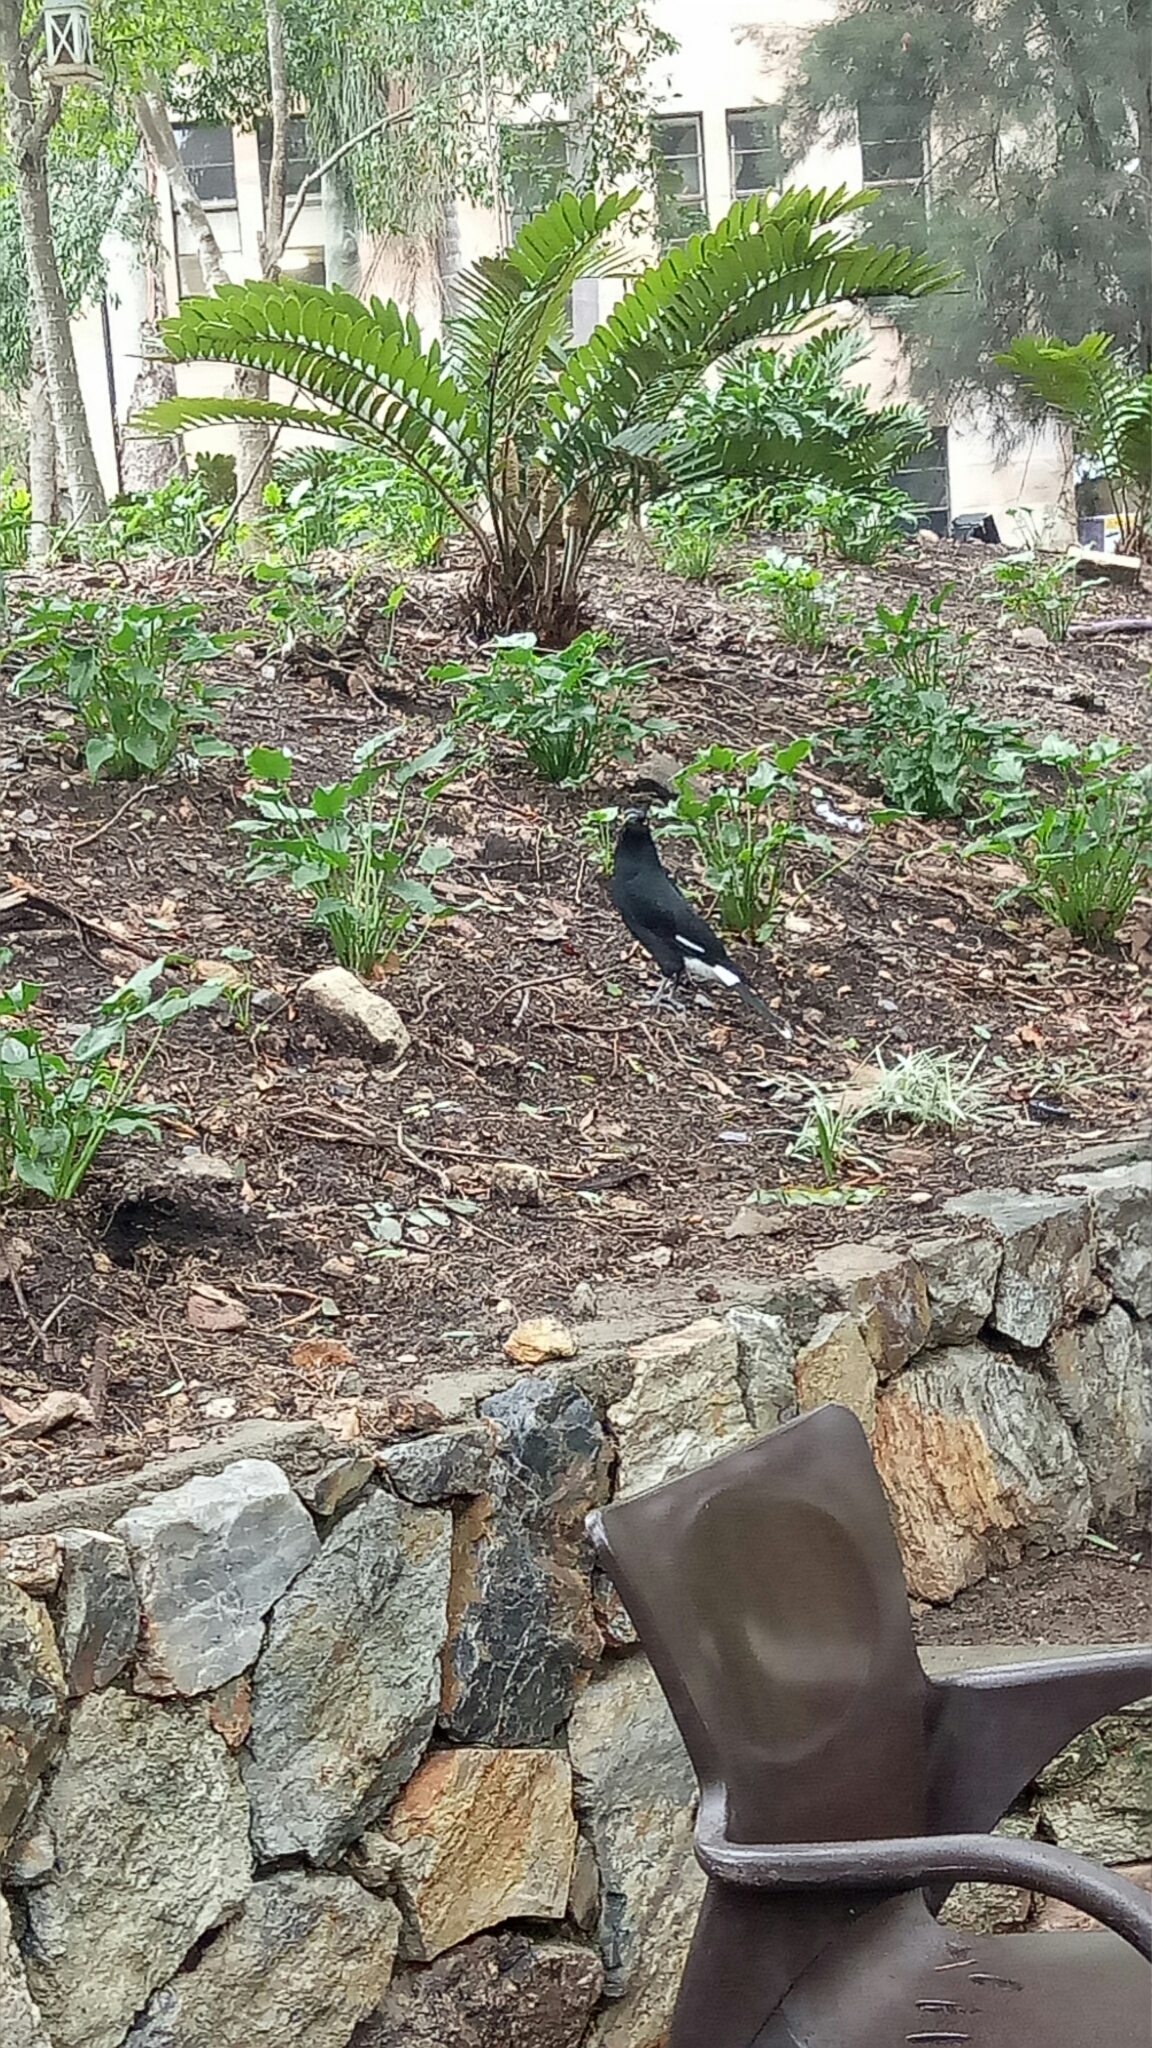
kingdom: Animalia
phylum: Chordata
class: Aves
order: Passeriformes
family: Cracticidae
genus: Strepera
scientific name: Strepera graculina
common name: Pied currawong
